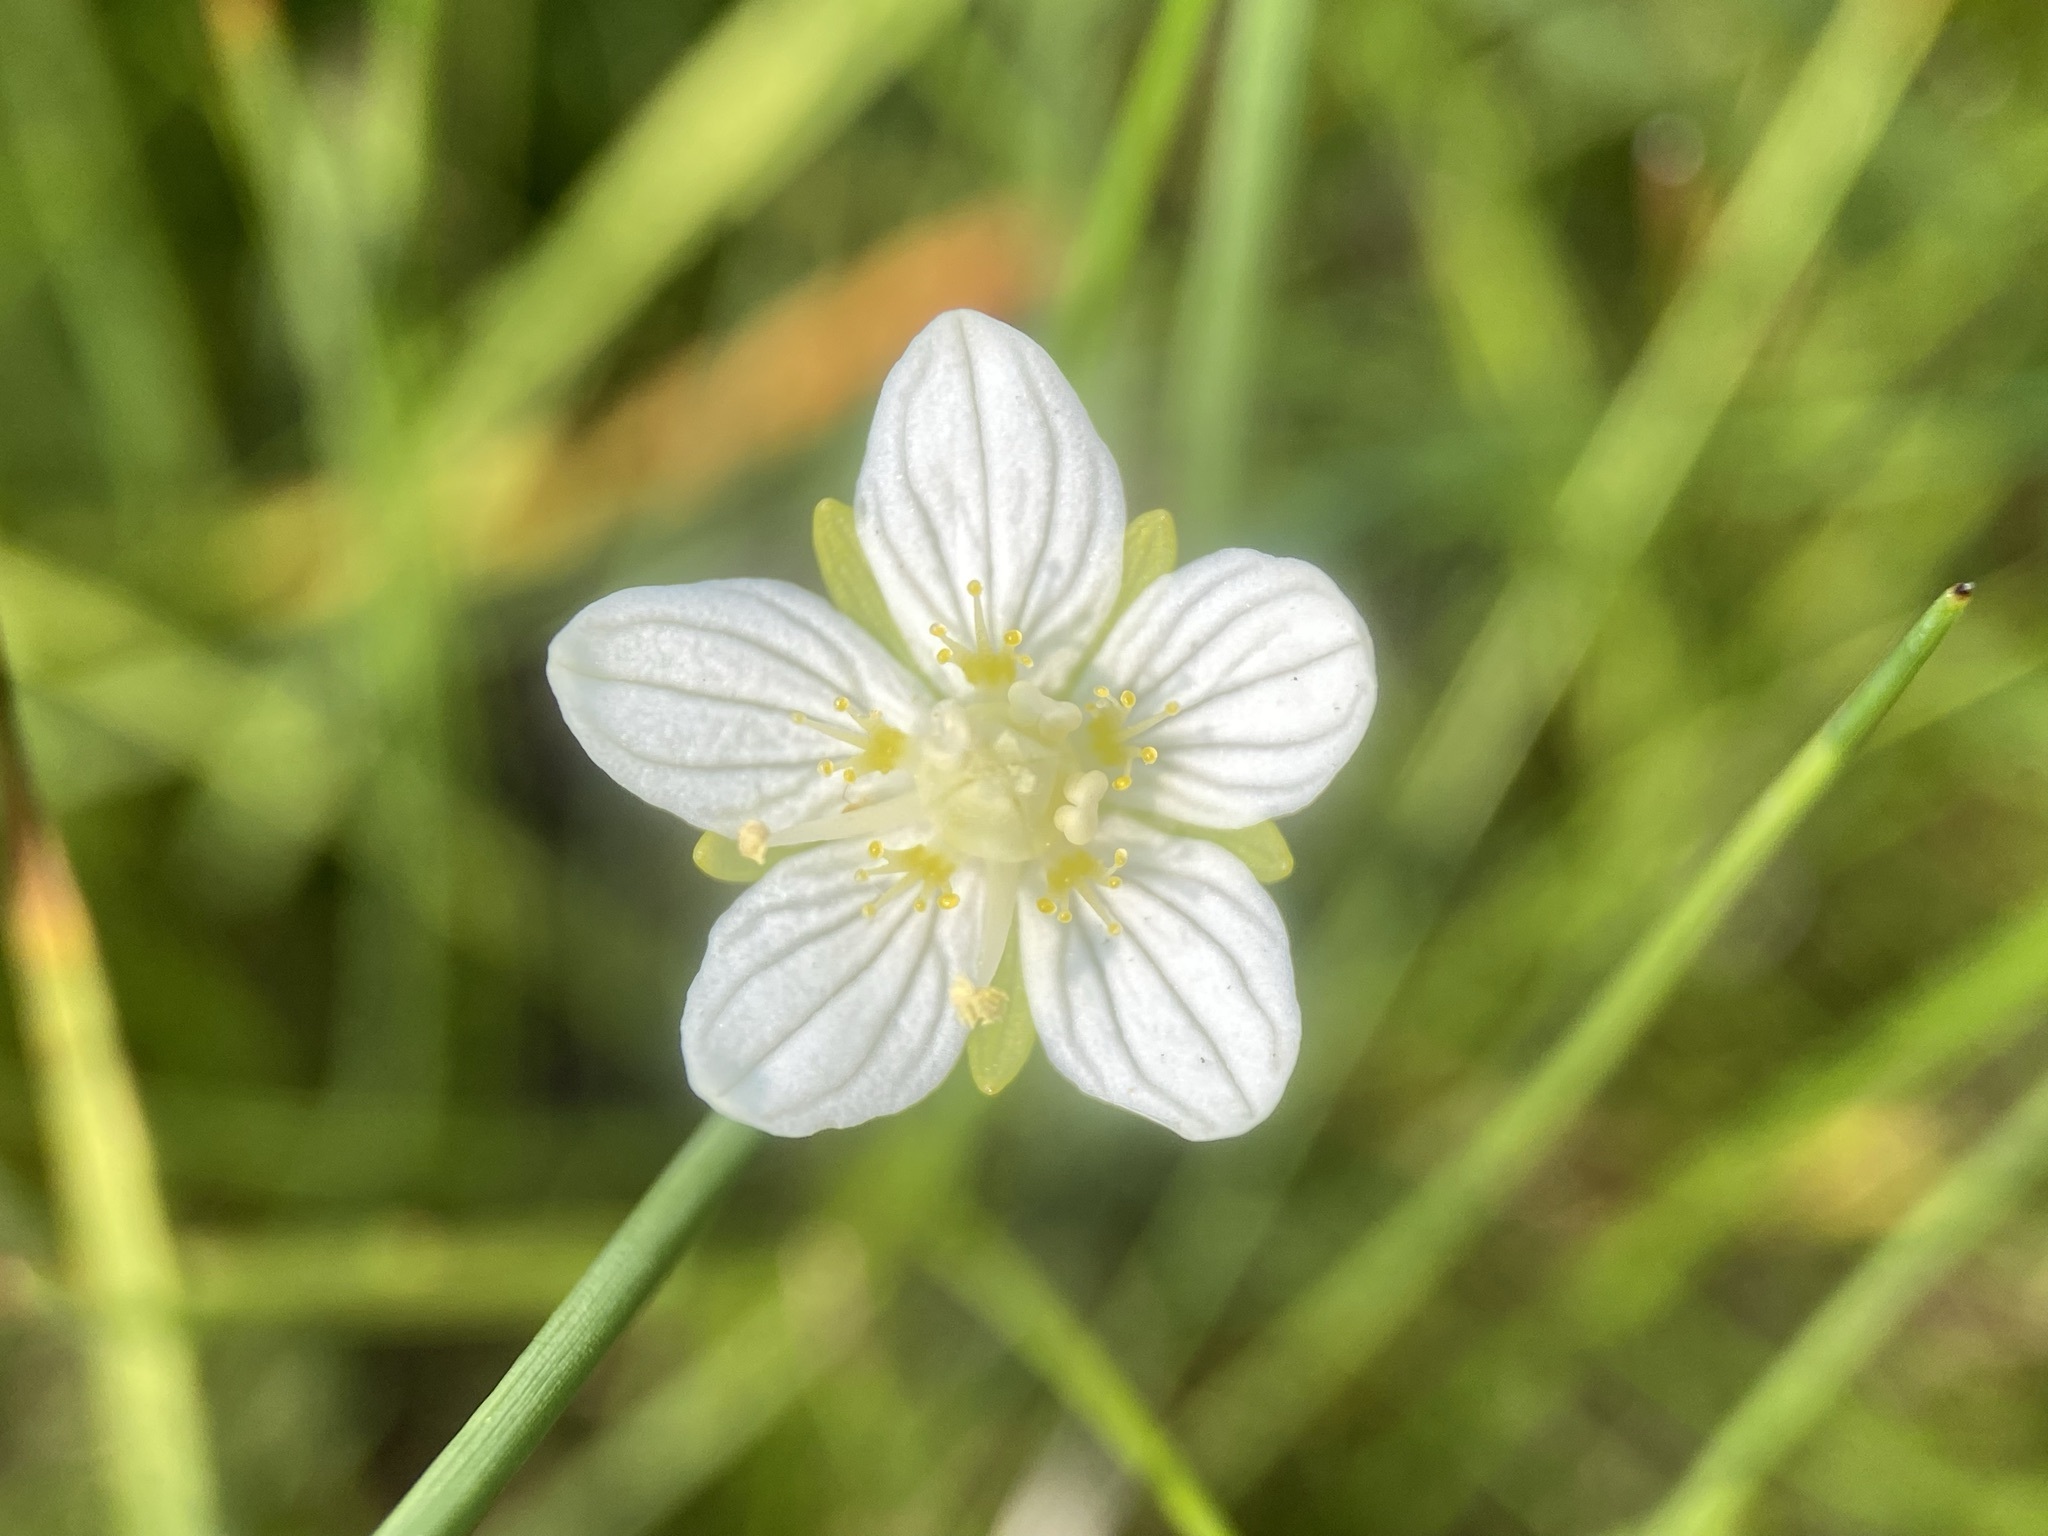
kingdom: Plantae
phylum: Tracheophyta
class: Magnoliopsida
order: Celastrales
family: Parnassiaceae
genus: Parnassia
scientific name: Parnassia parviflora
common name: Small-flowered grass-of-parnassus
